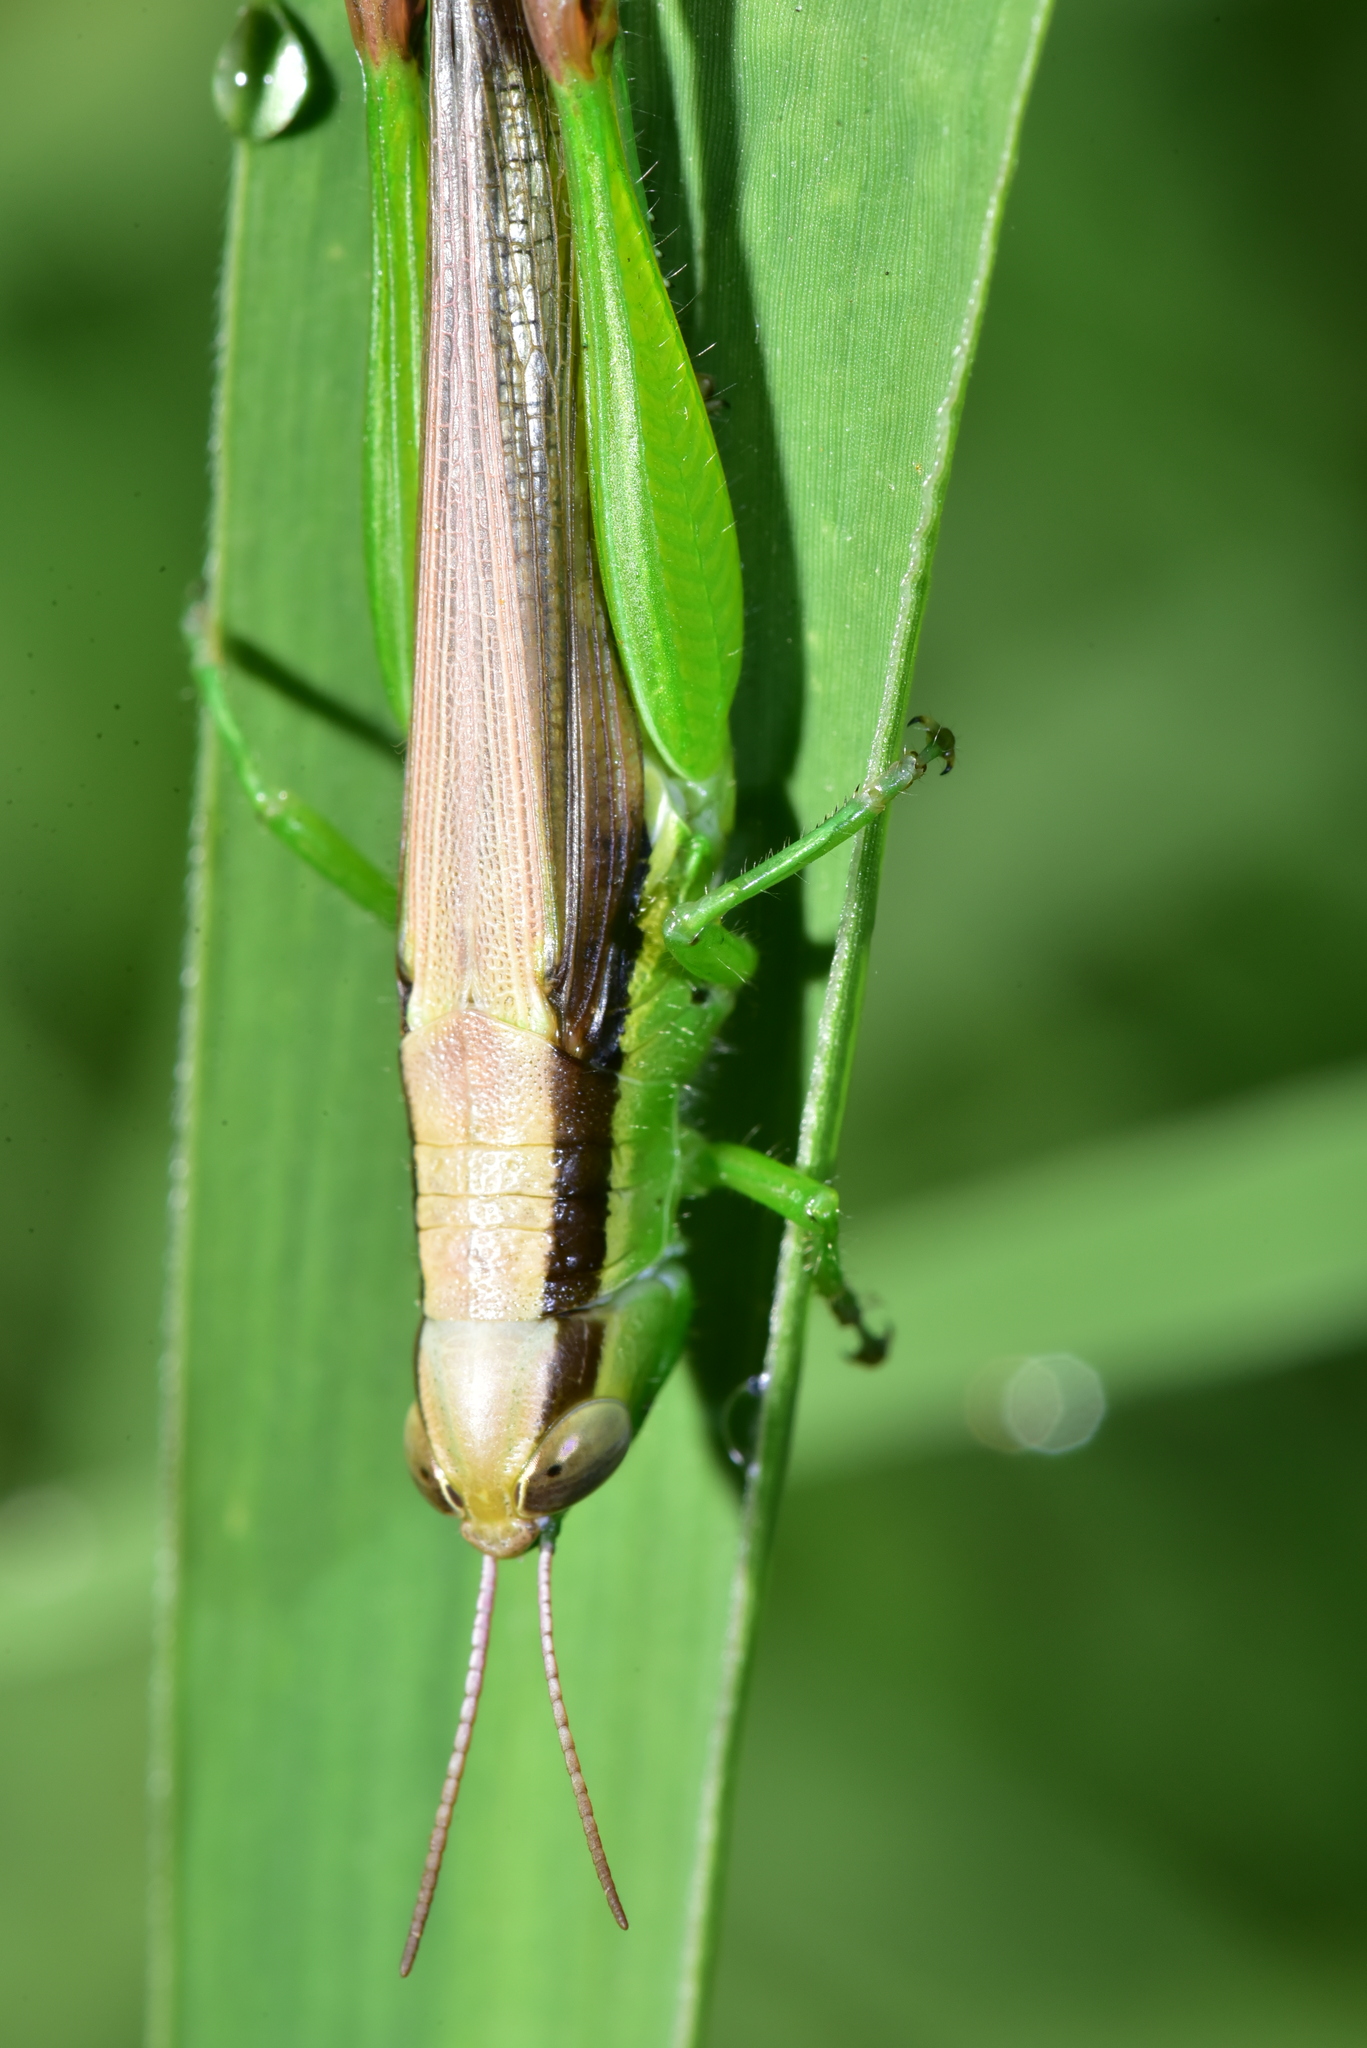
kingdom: Animalia
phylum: Arthropoda
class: Insecta
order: Orthoptera
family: Acrididae
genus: Oxya
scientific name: Oxya chinensis
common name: Small rice grasshopper
